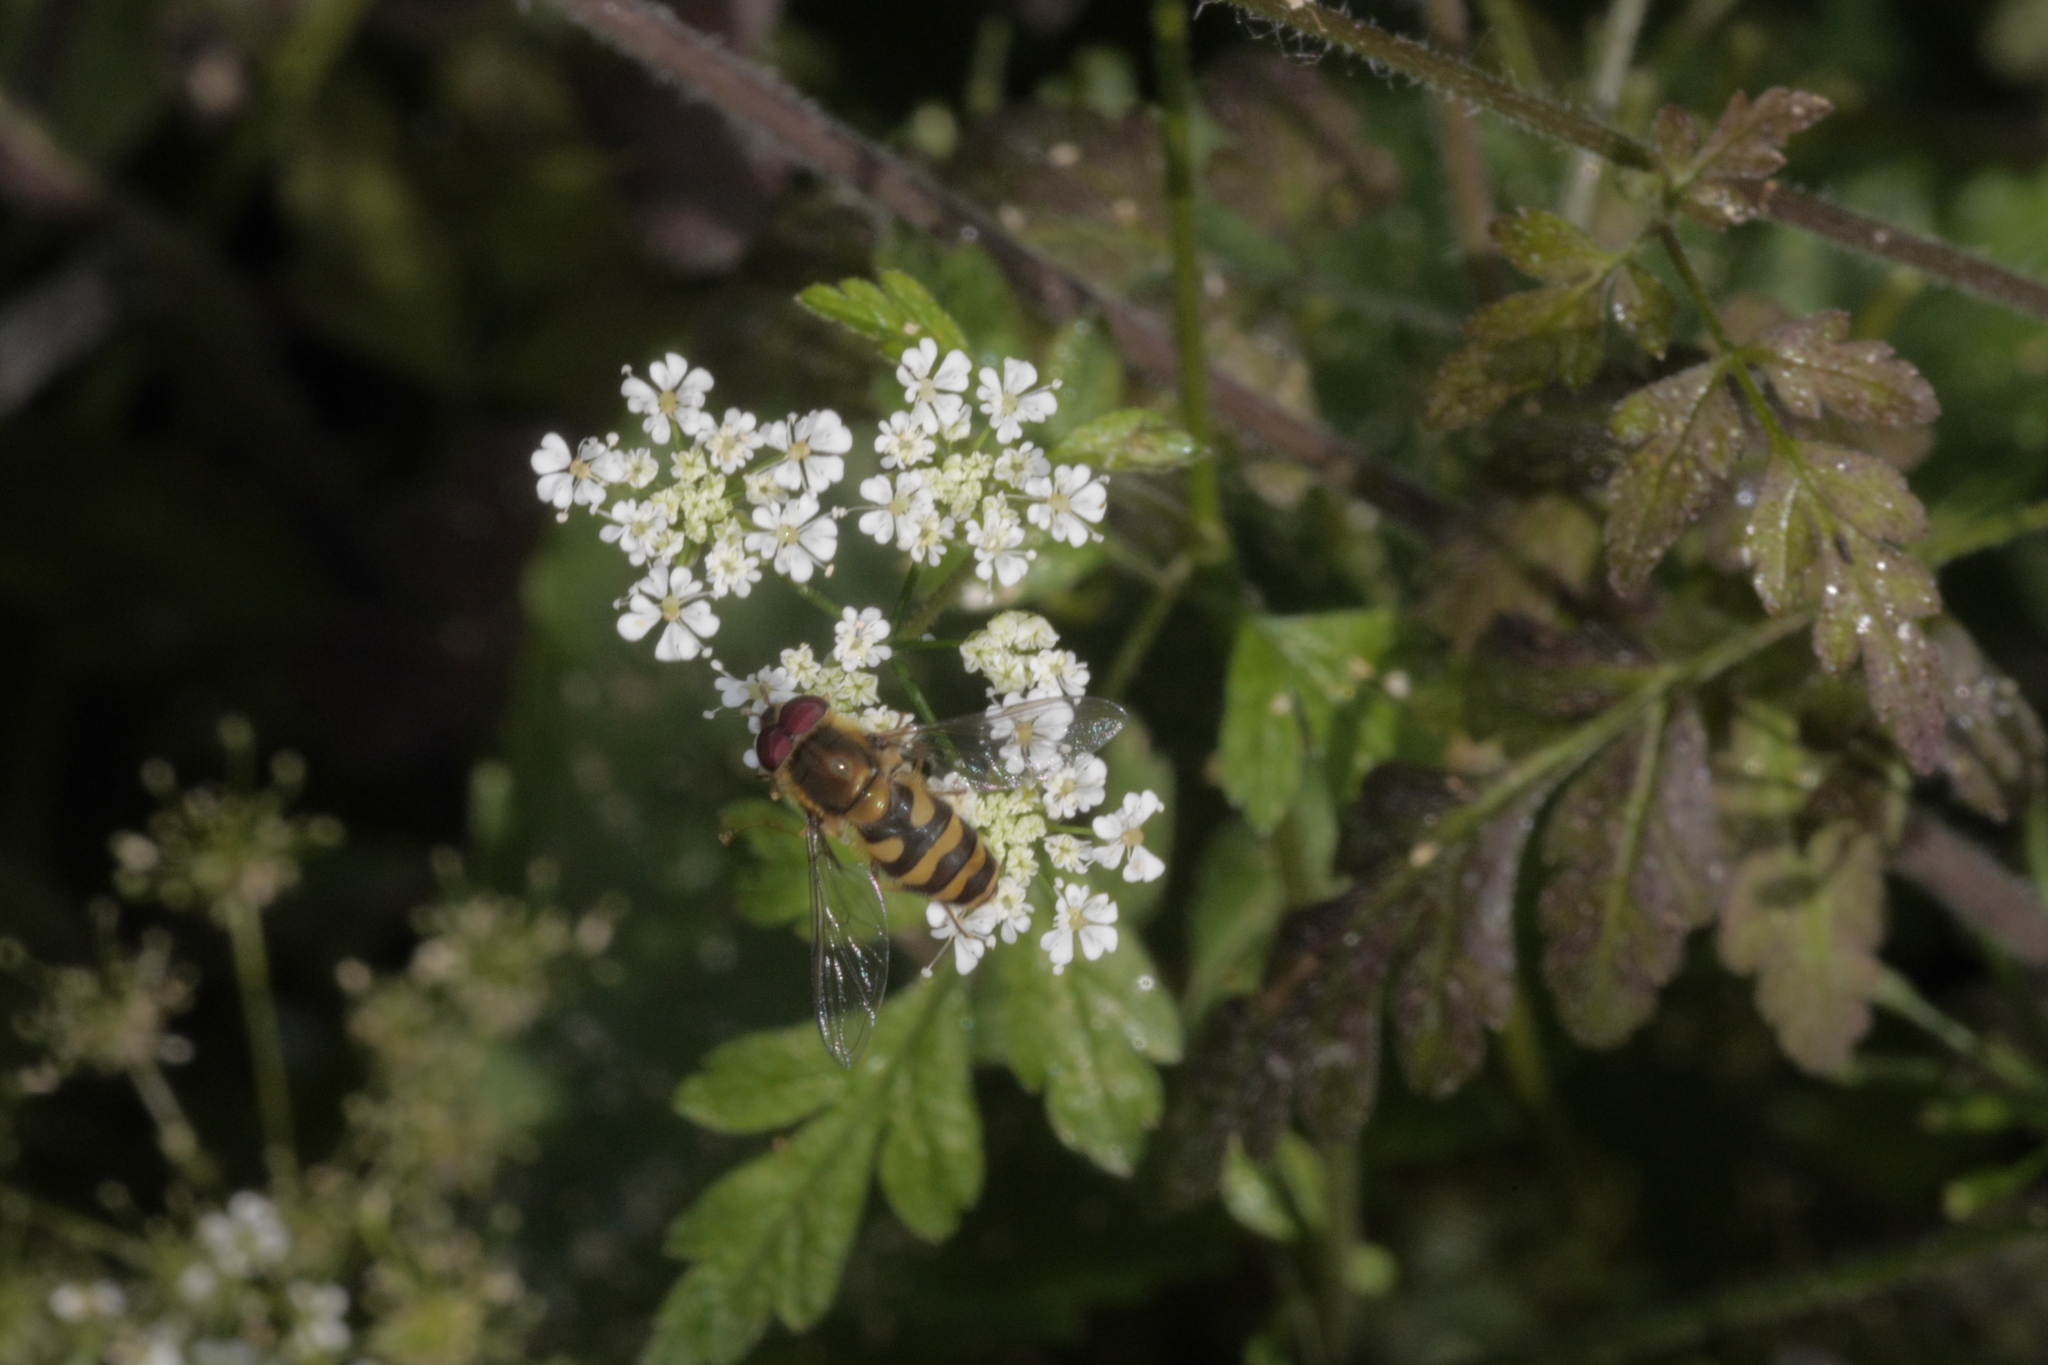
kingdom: Animalia
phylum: Arthropoda
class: Insecta
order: Diptera
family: Syrphidae
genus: Syrphus
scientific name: Syrphus
